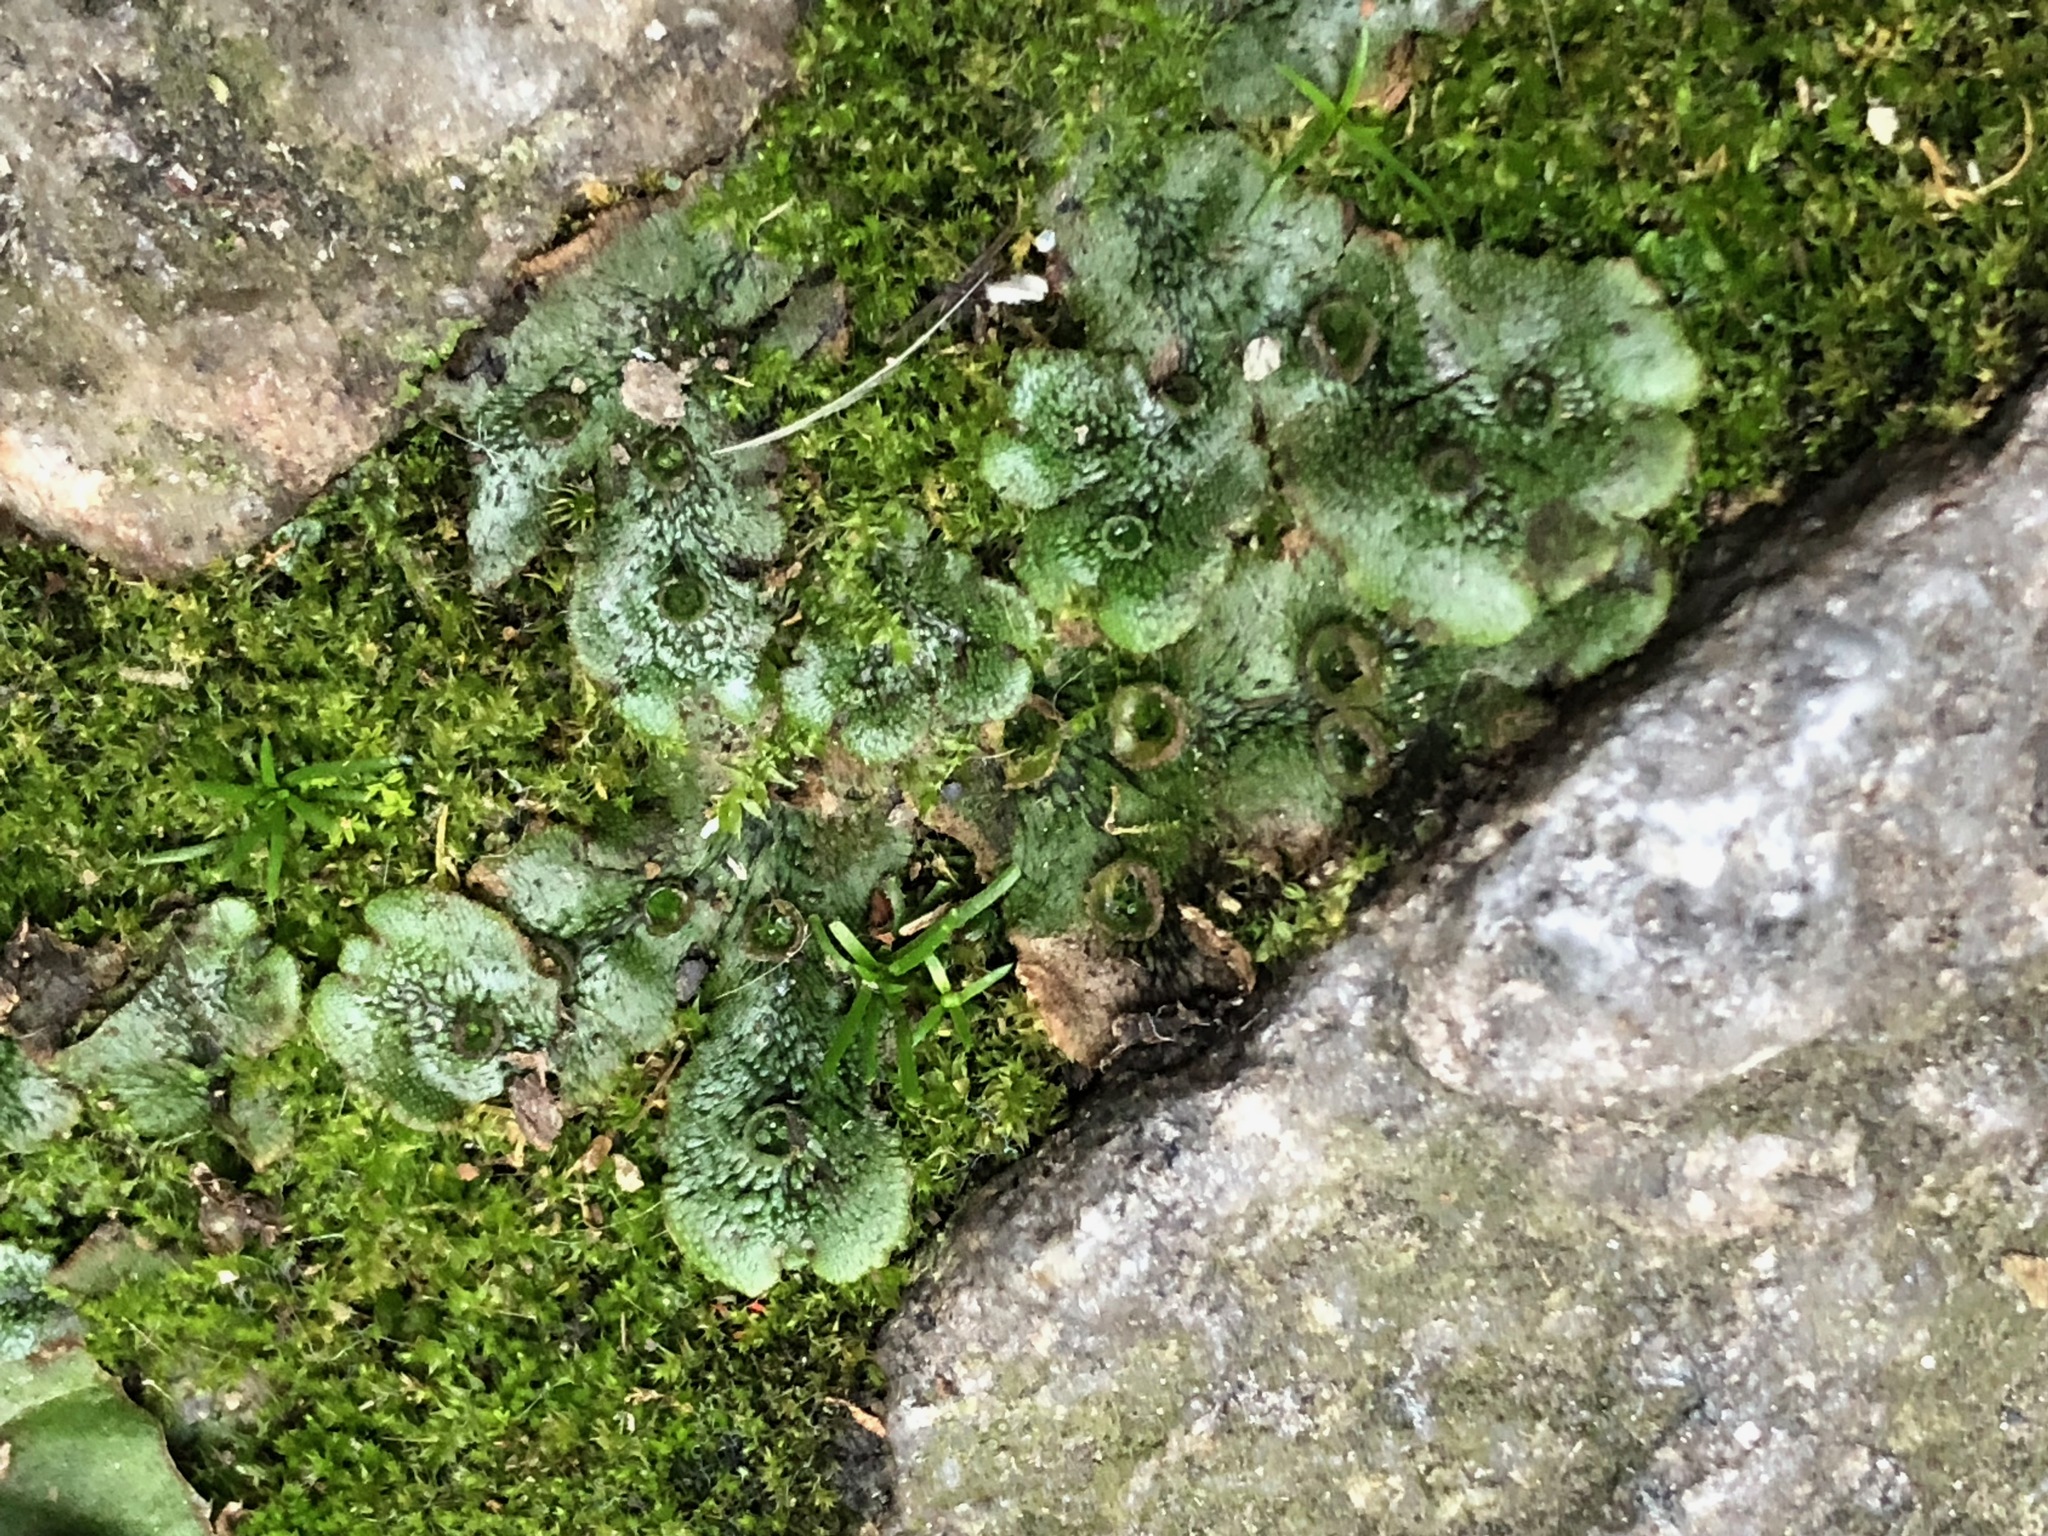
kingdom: Plantae
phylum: Marchantiophyta
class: Marchantiopsida
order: Marchantiales
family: Marchantiaceae
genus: Marchantia
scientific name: Marchantia polymorpha
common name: Common liverwort
